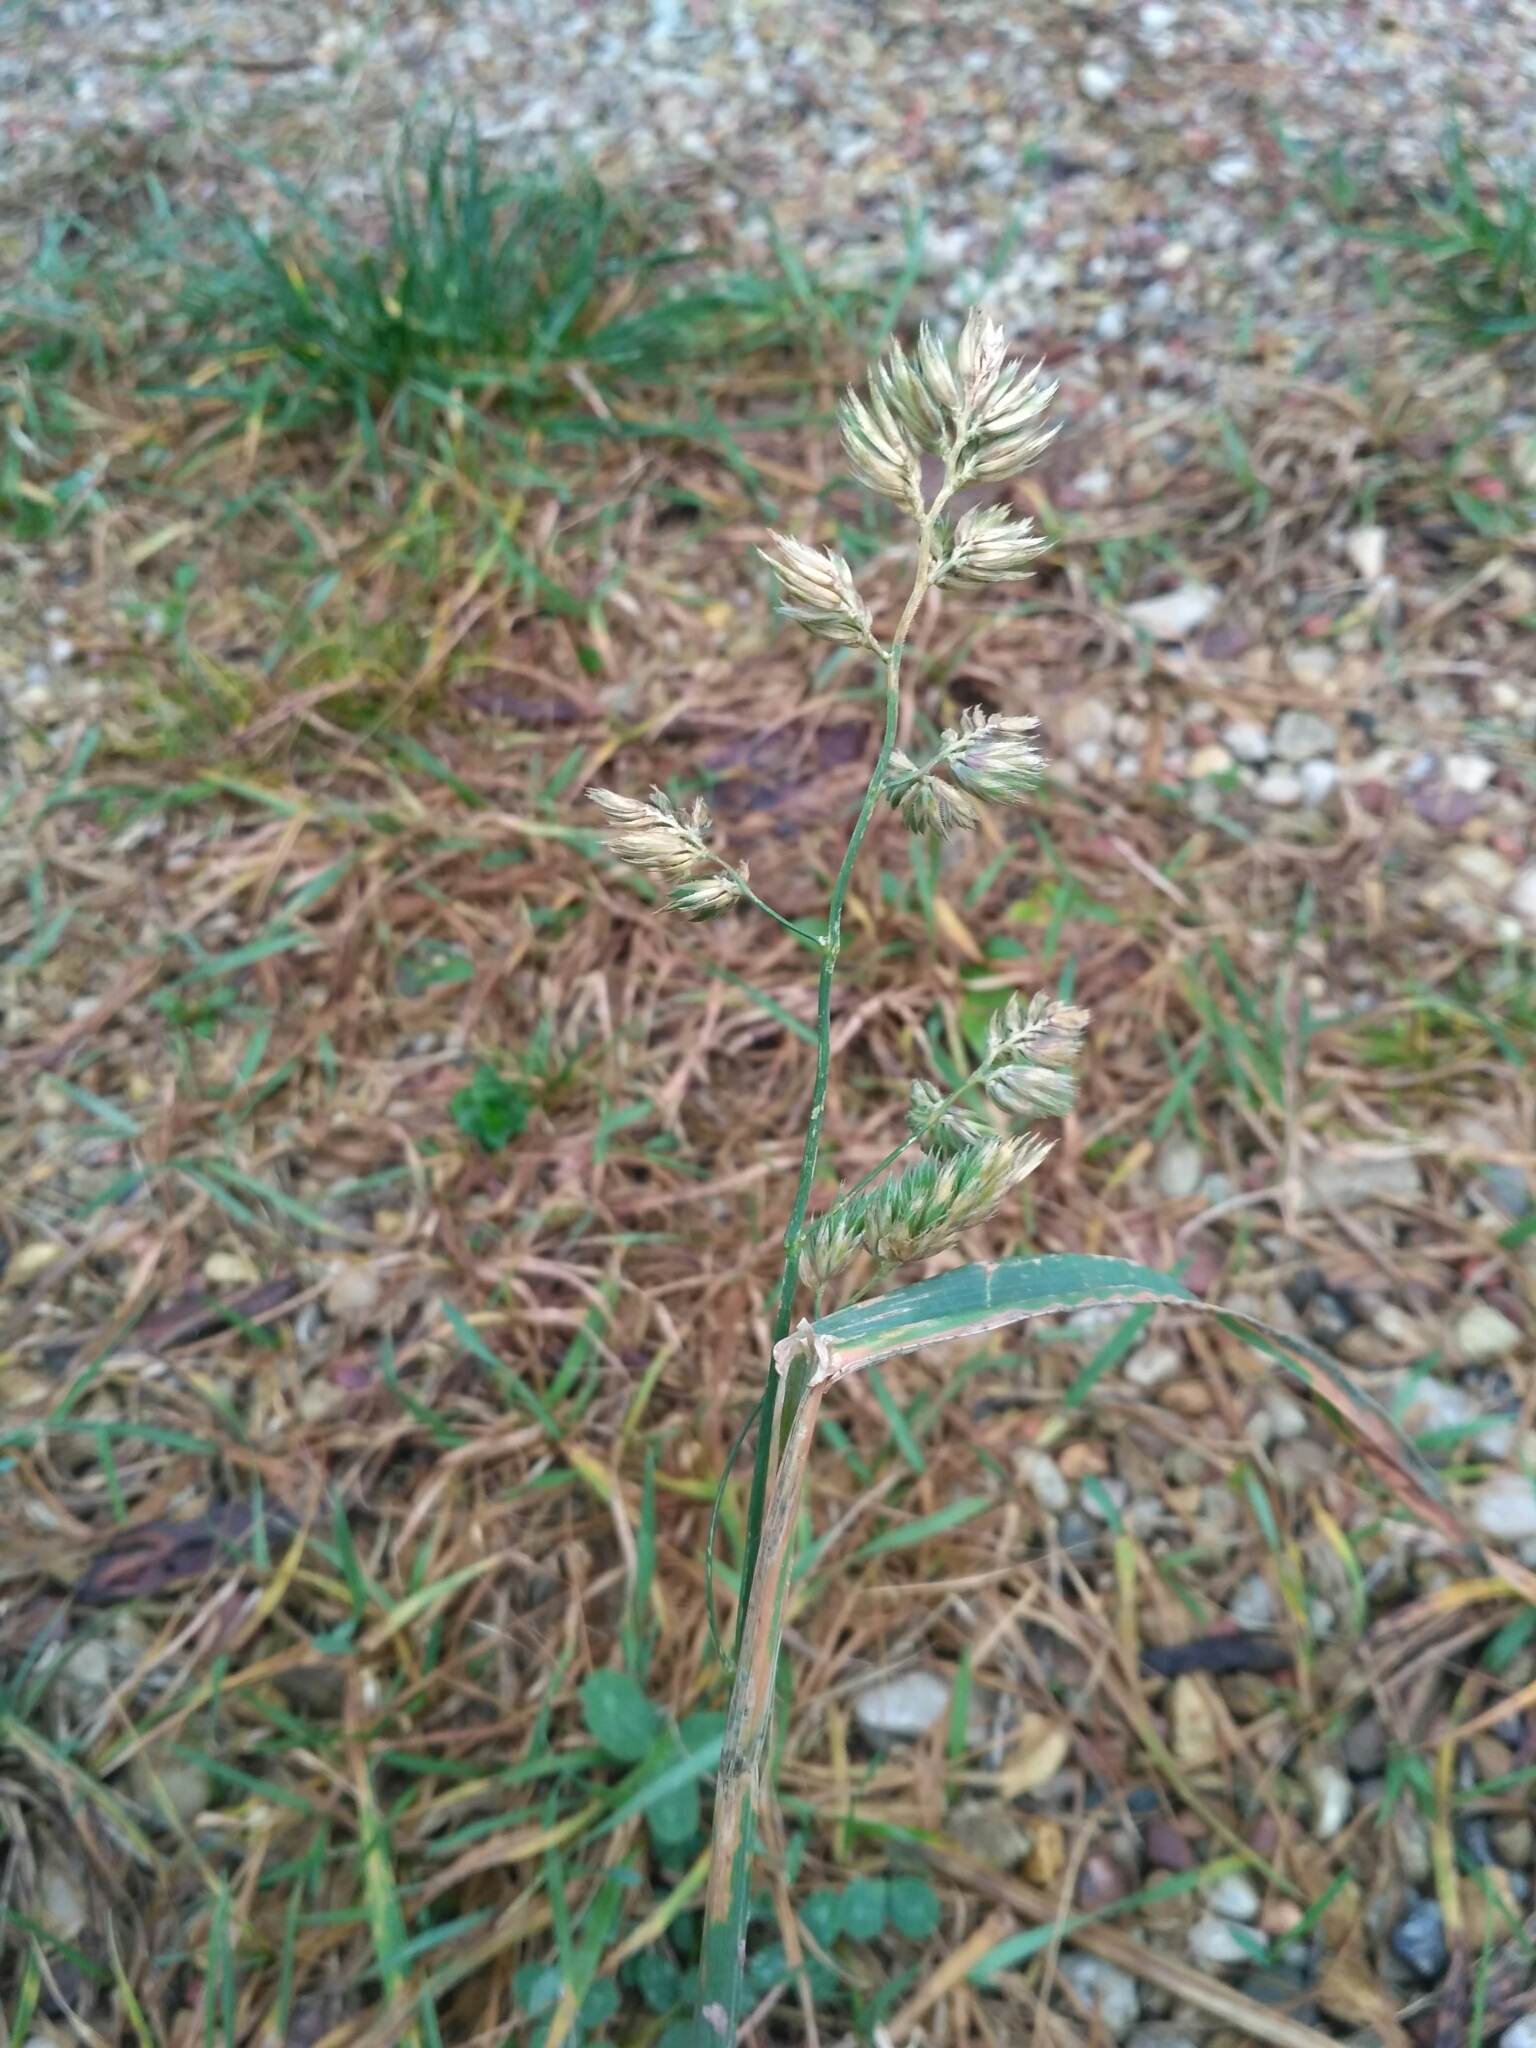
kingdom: Plantae
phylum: Tracheophyta
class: Liliopsida
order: Poales
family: Poaceae
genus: Dactylis
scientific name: Dactylis glomerata
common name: Orchardgrass
